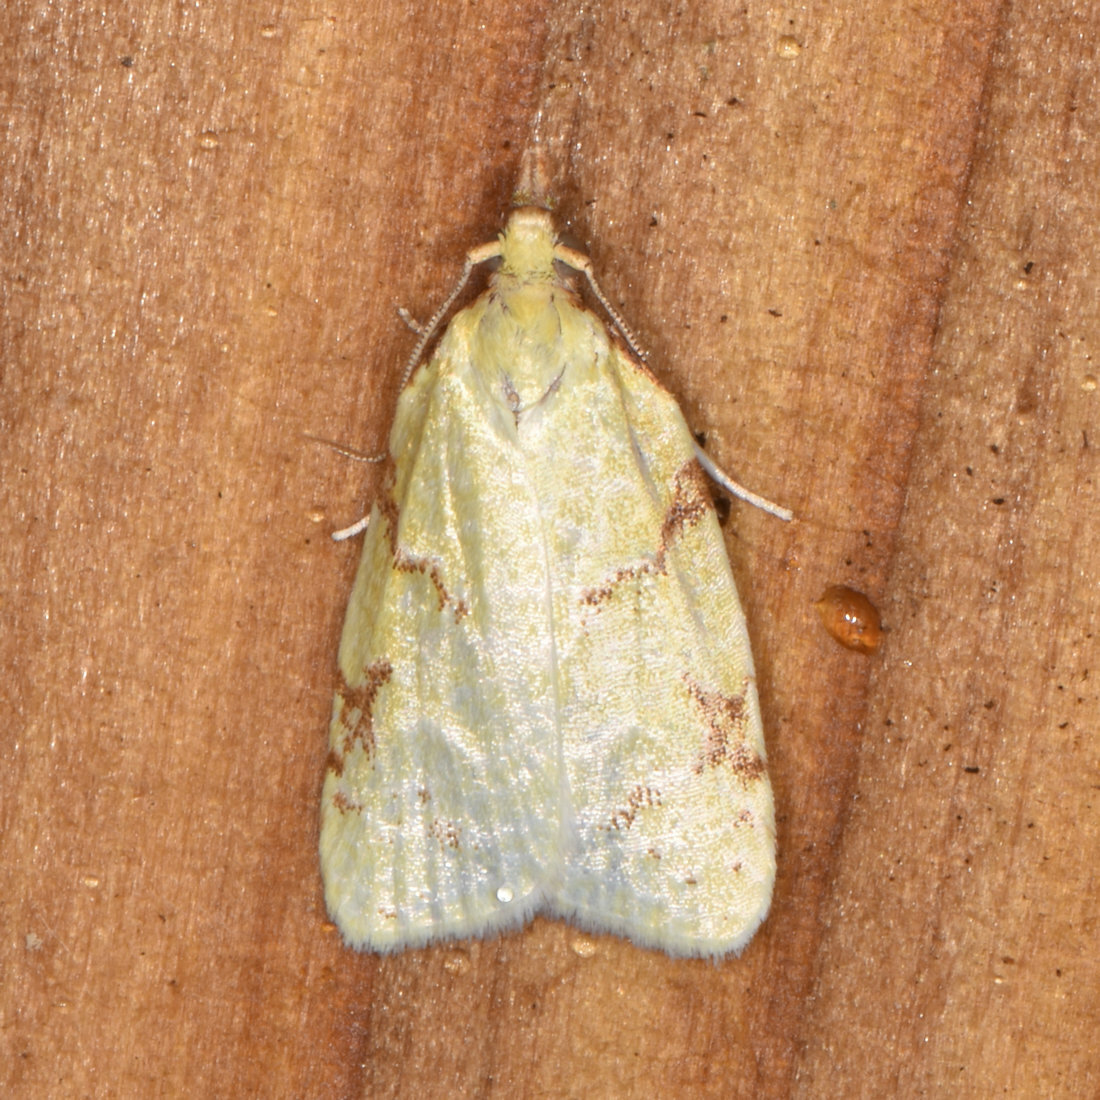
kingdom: Animalia
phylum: Arthropoda
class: Insecta
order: Lepidoptera
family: Tortricidae
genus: Cenopis
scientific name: Cenopis pettitana
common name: Maple-basswood leafroller moth
